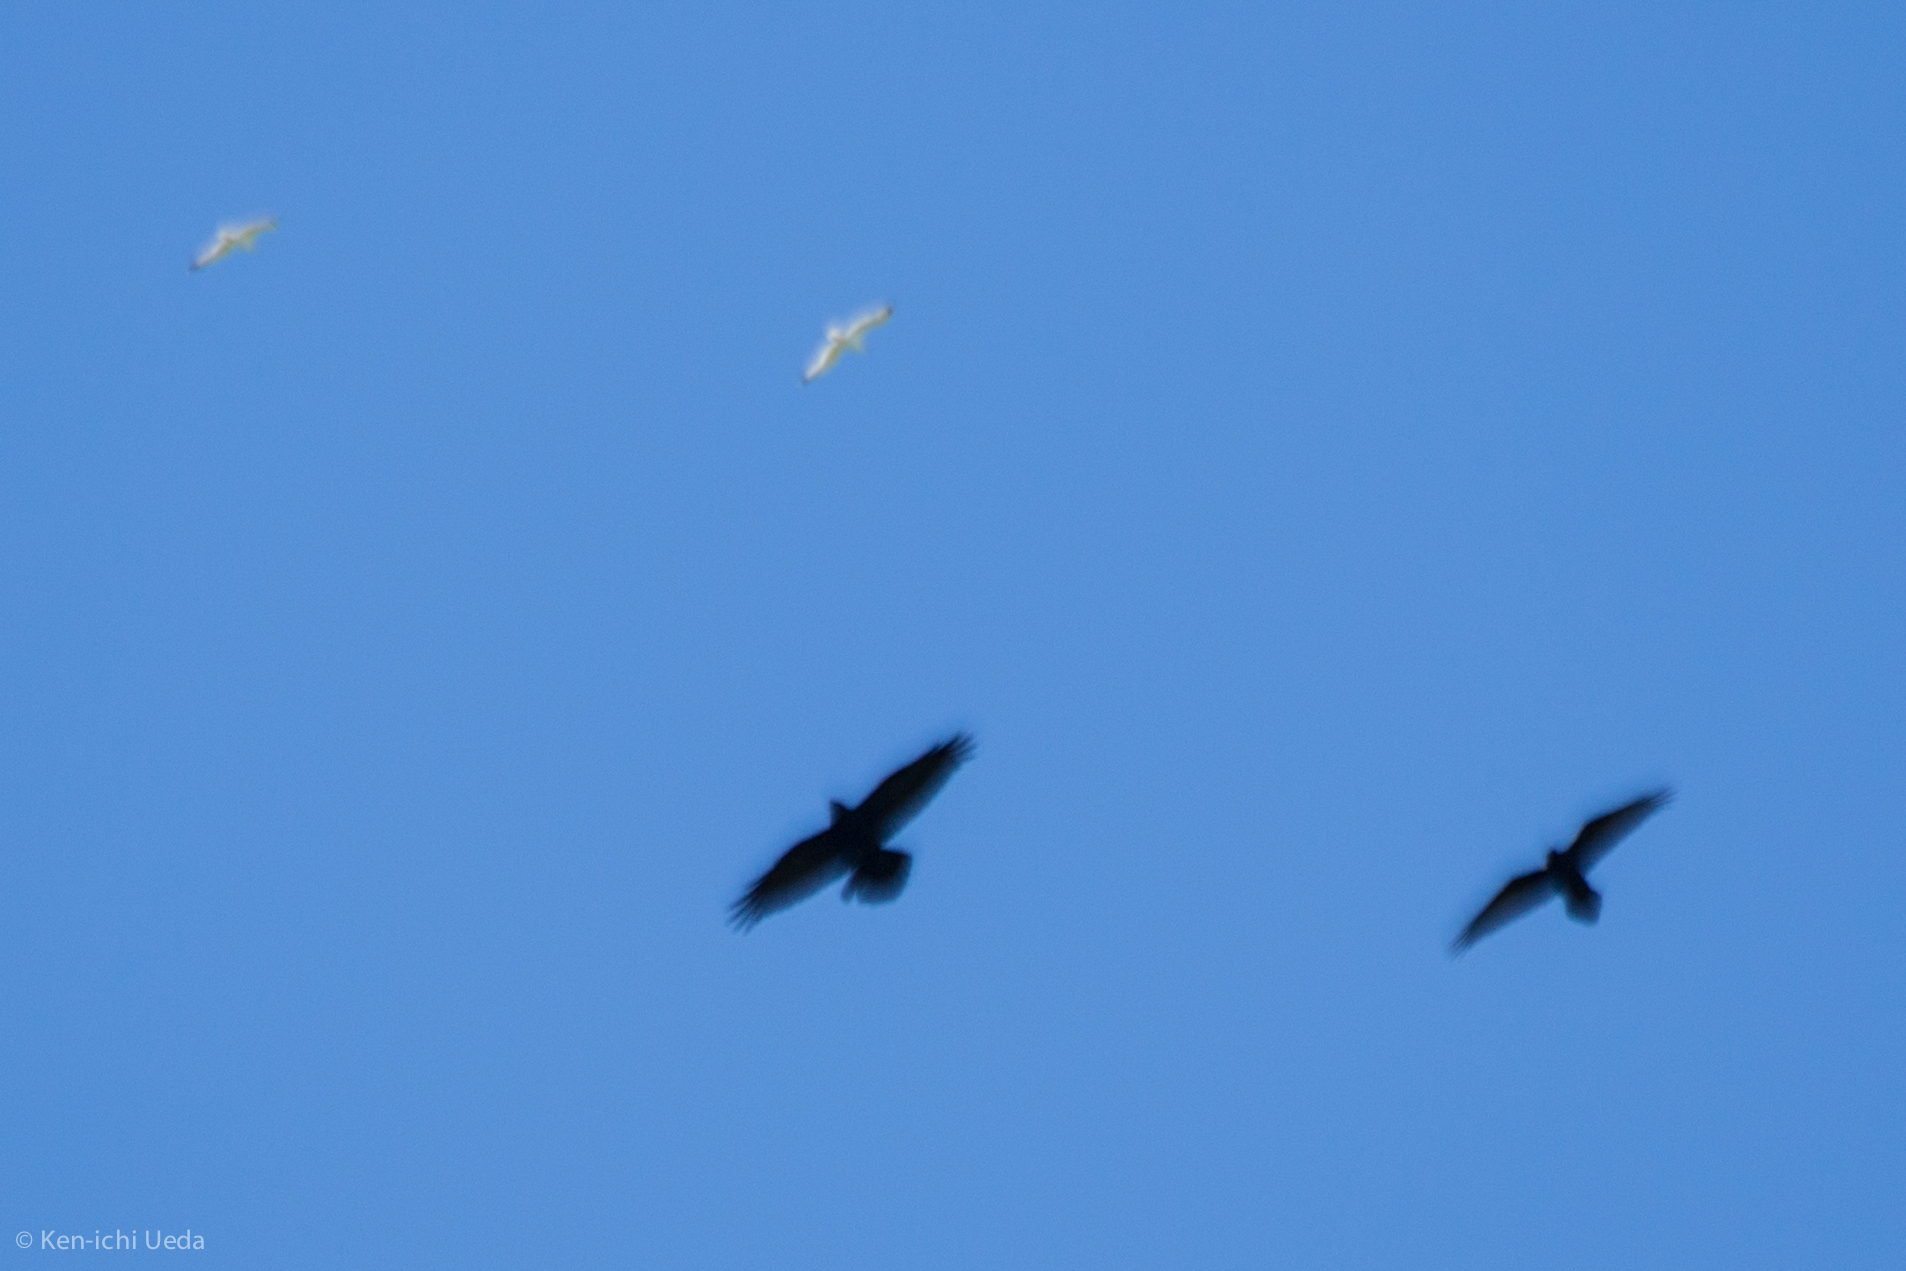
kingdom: Animalia
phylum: Chordata
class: Aves
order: Passeriformes
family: Corvidae
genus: Corvus
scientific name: Corvus corax
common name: Common raven
